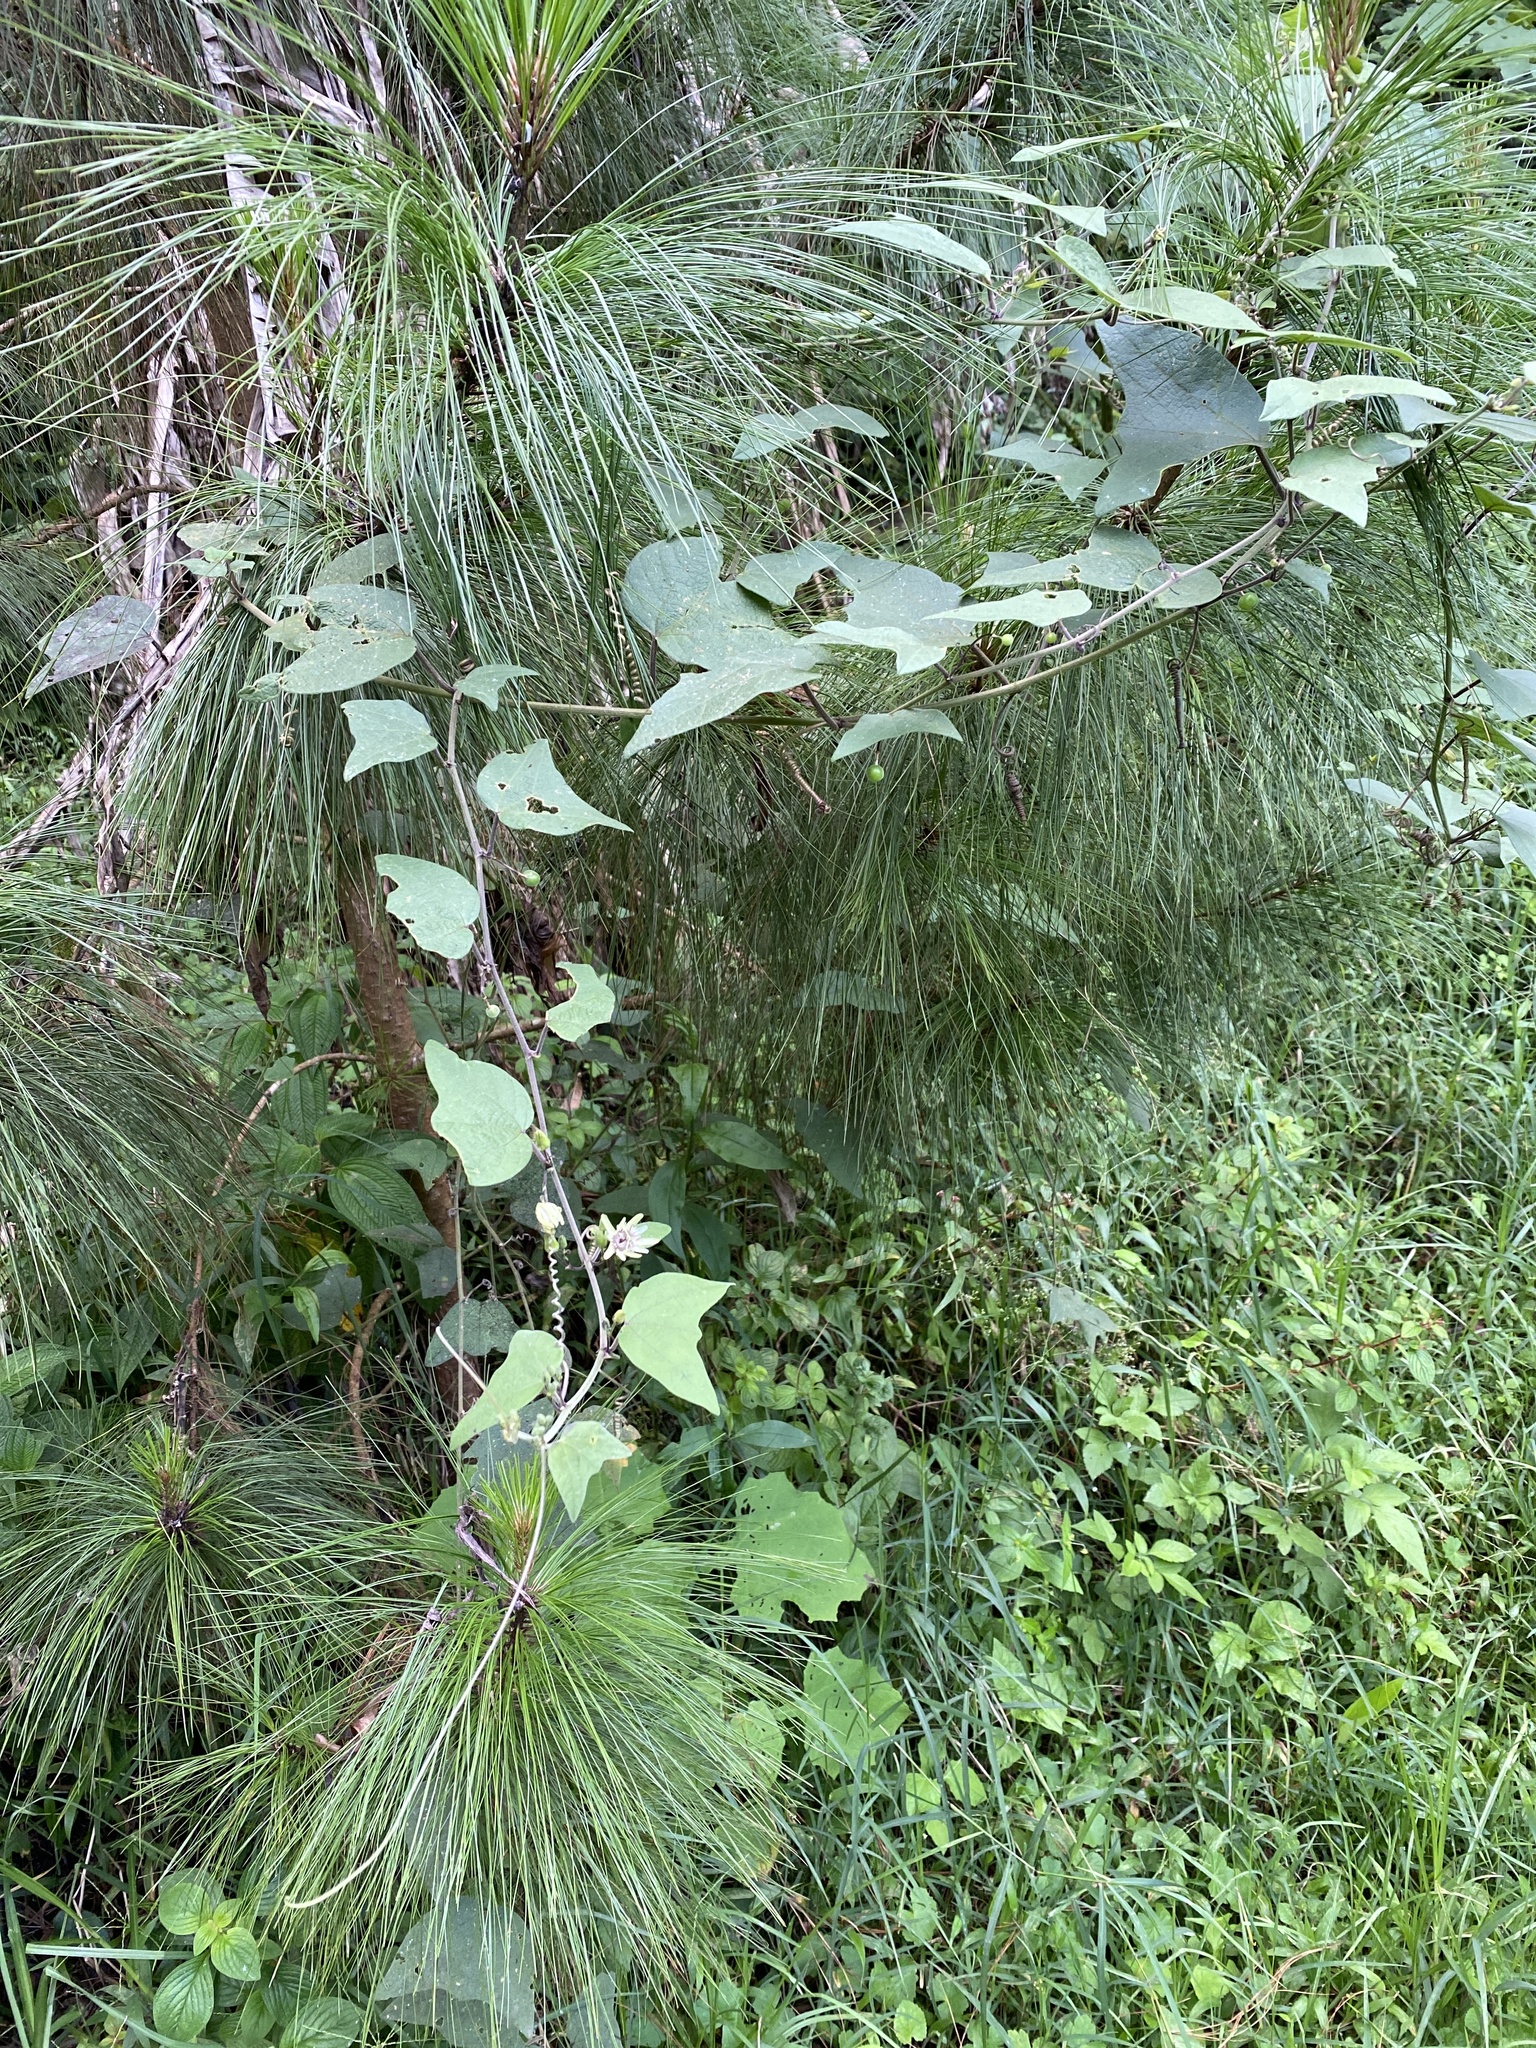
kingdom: Plantae
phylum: Tracheophyta
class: Magnoliopsida
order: Malpighiales
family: Passifloraceae
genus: Passiflora
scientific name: Passiflora sexflora
